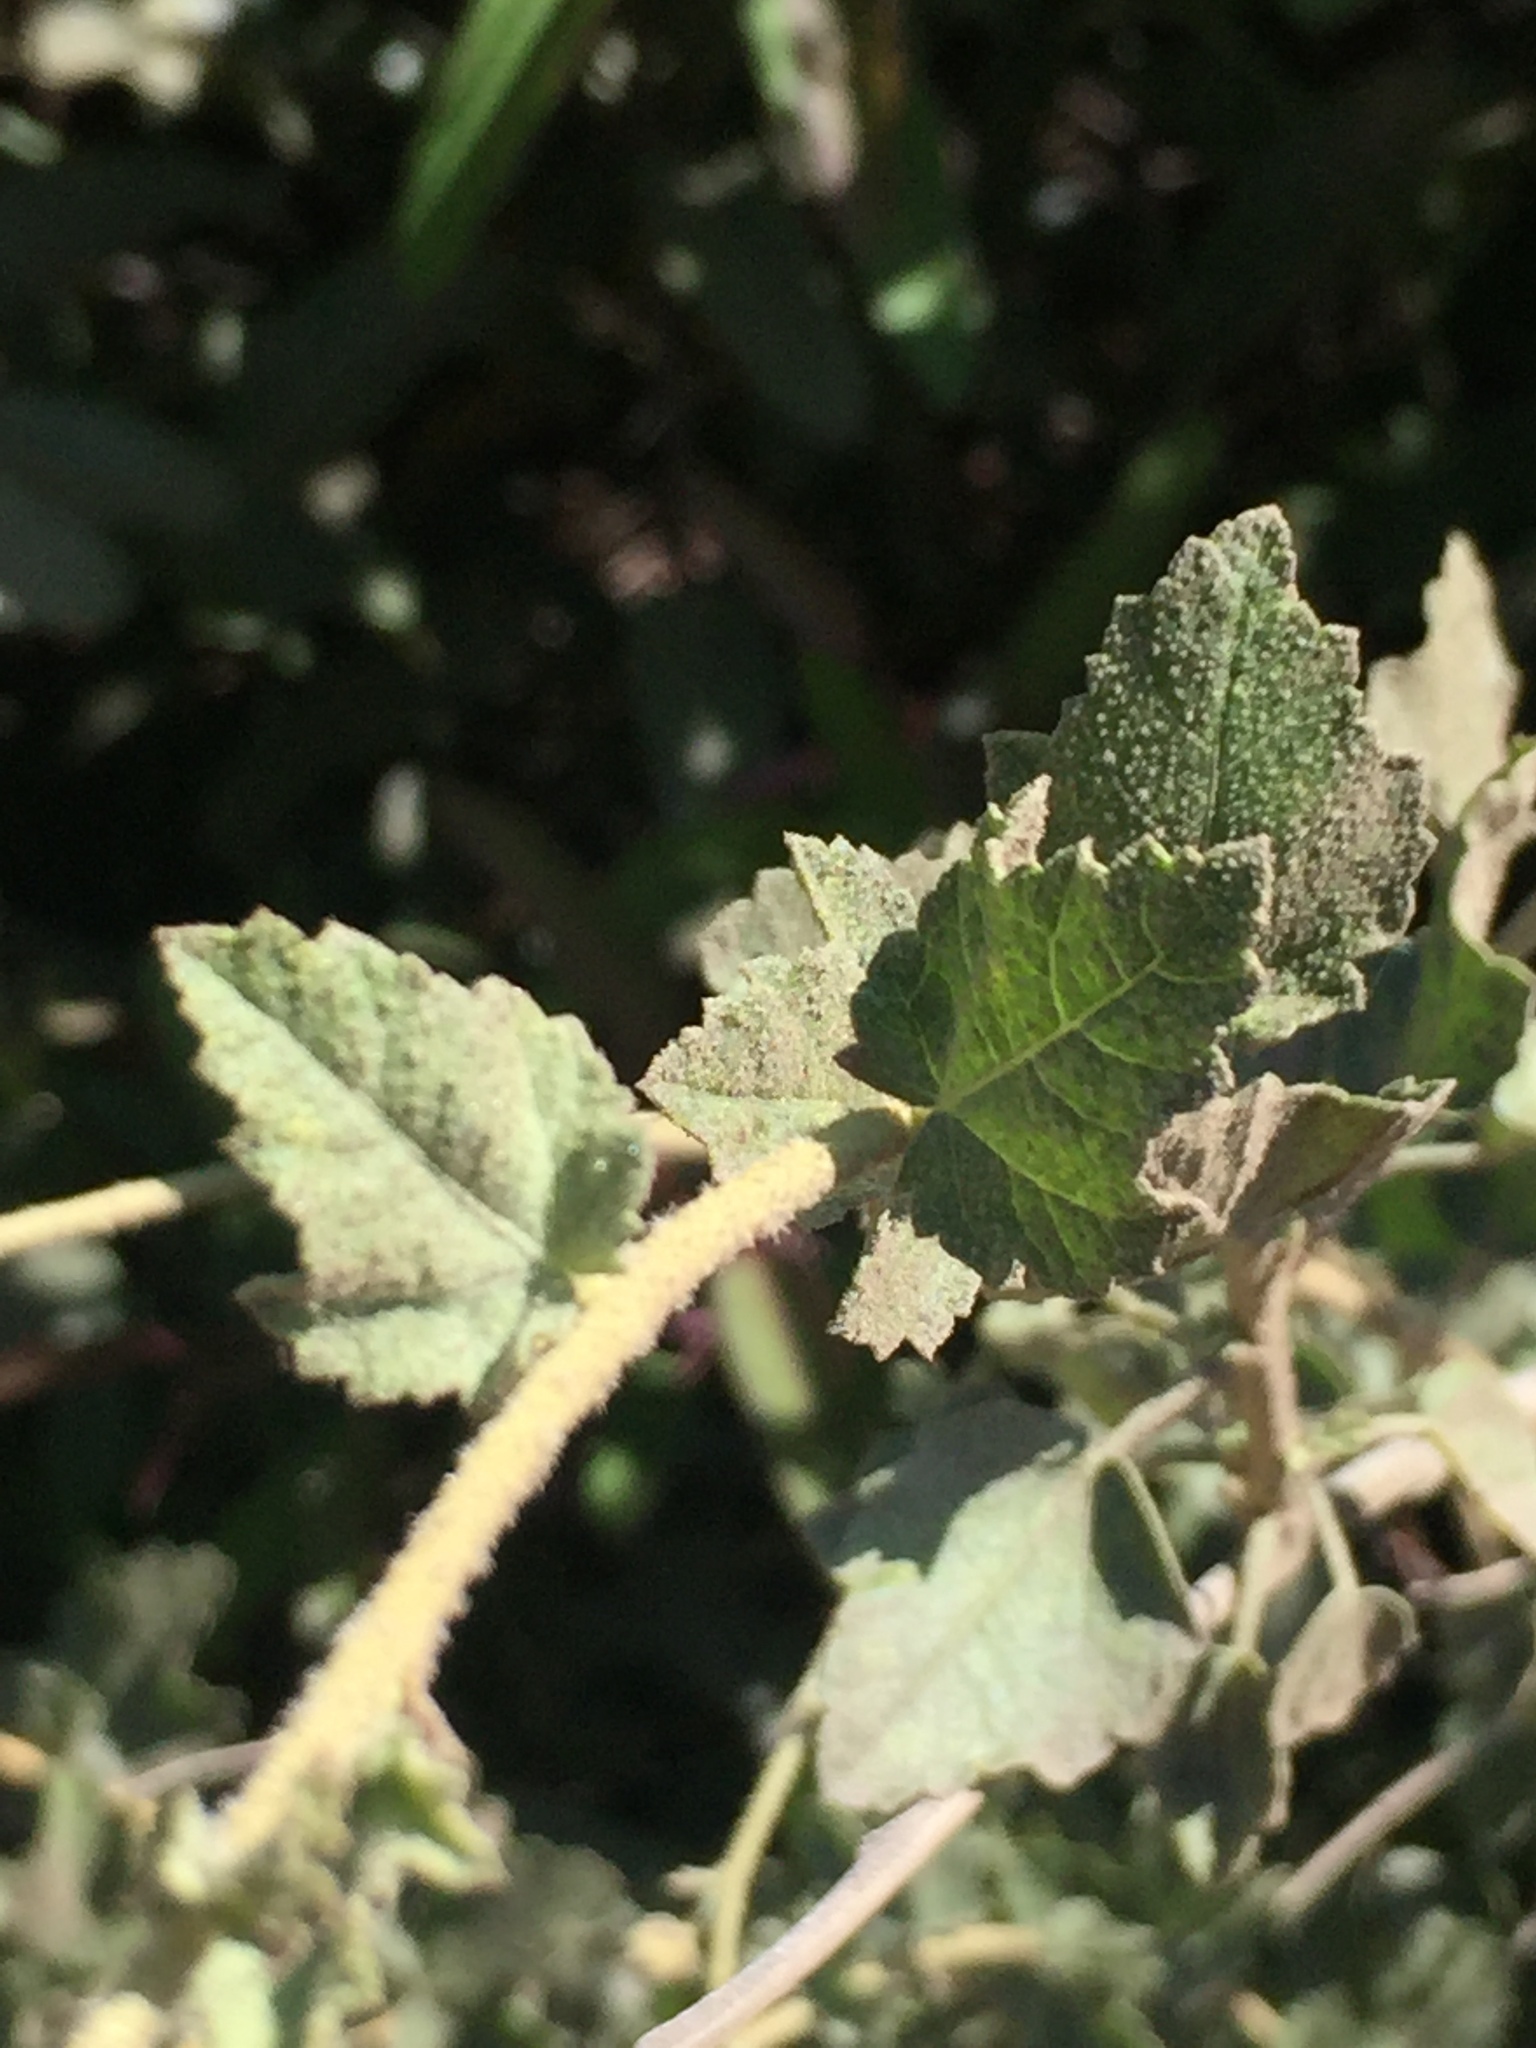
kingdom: Plantae
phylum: Tracheophyta
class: Magnoliopsida
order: Malvales
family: Malvaceae
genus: Malacothamnus
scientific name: Malacothamnus fasciculatus
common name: Sant cruz island bush-mallow
